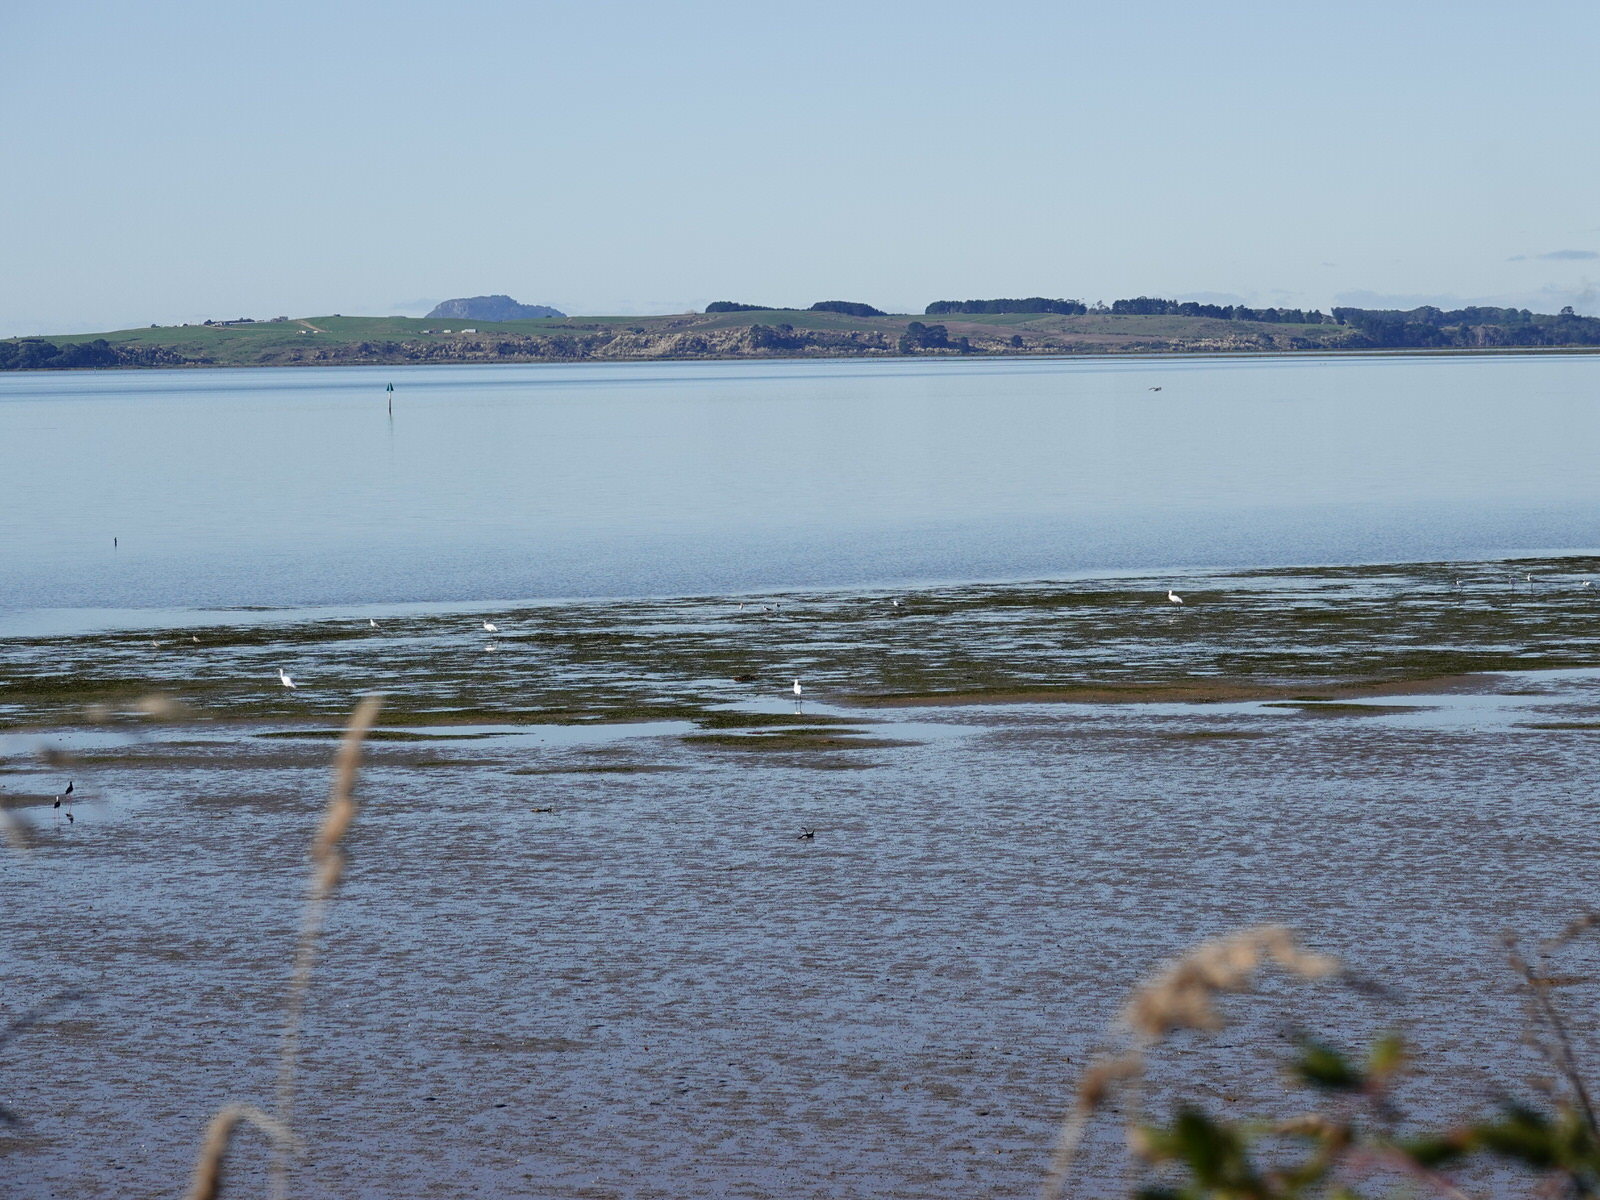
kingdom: Animalia
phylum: Chordata
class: Aves
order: Pelecaniformes
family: Threskiornithidae
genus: Platalea
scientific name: Platalea regia
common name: Royal spoonbill
